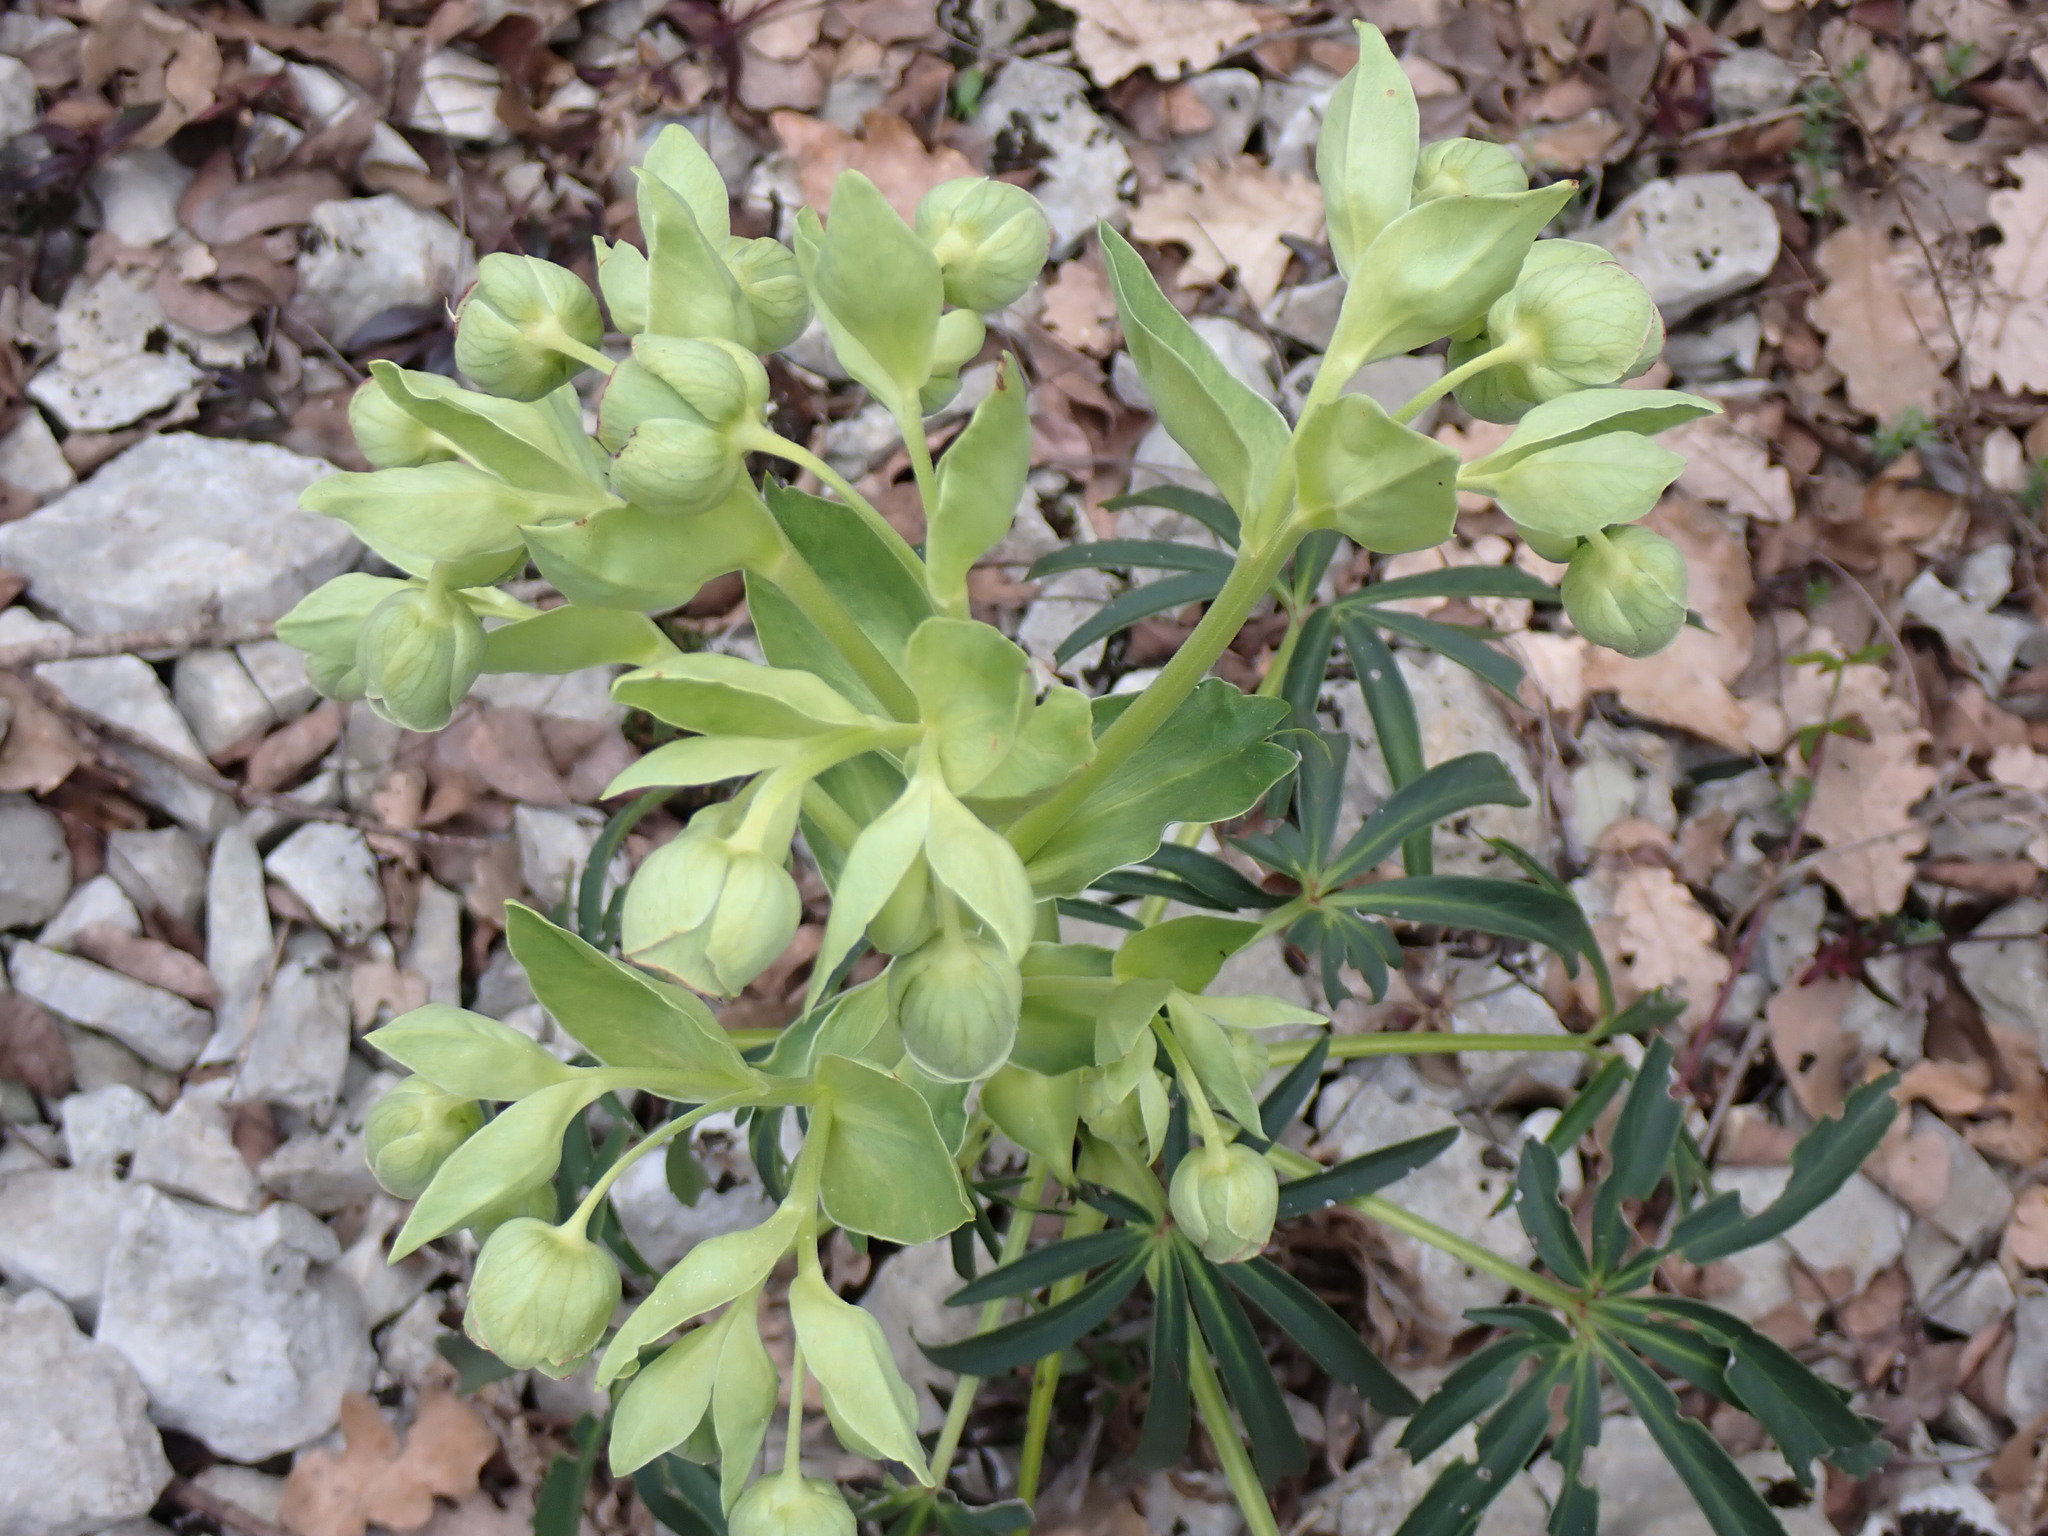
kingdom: Plantae
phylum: Tracheophyta
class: Magnoliopsida
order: Ranunculales
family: Ranunculaceae
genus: Helleborus
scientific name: Helleborus foetidus
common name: Stinking hellebore
